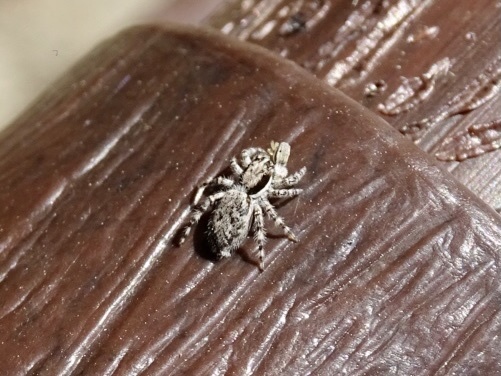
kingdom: Animalia
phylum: Arthropoda
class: Arachnida
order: Araneae
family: Salticidae
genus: Menemerus
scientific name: Menemerus bivittatus
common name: Gray wall jumper
